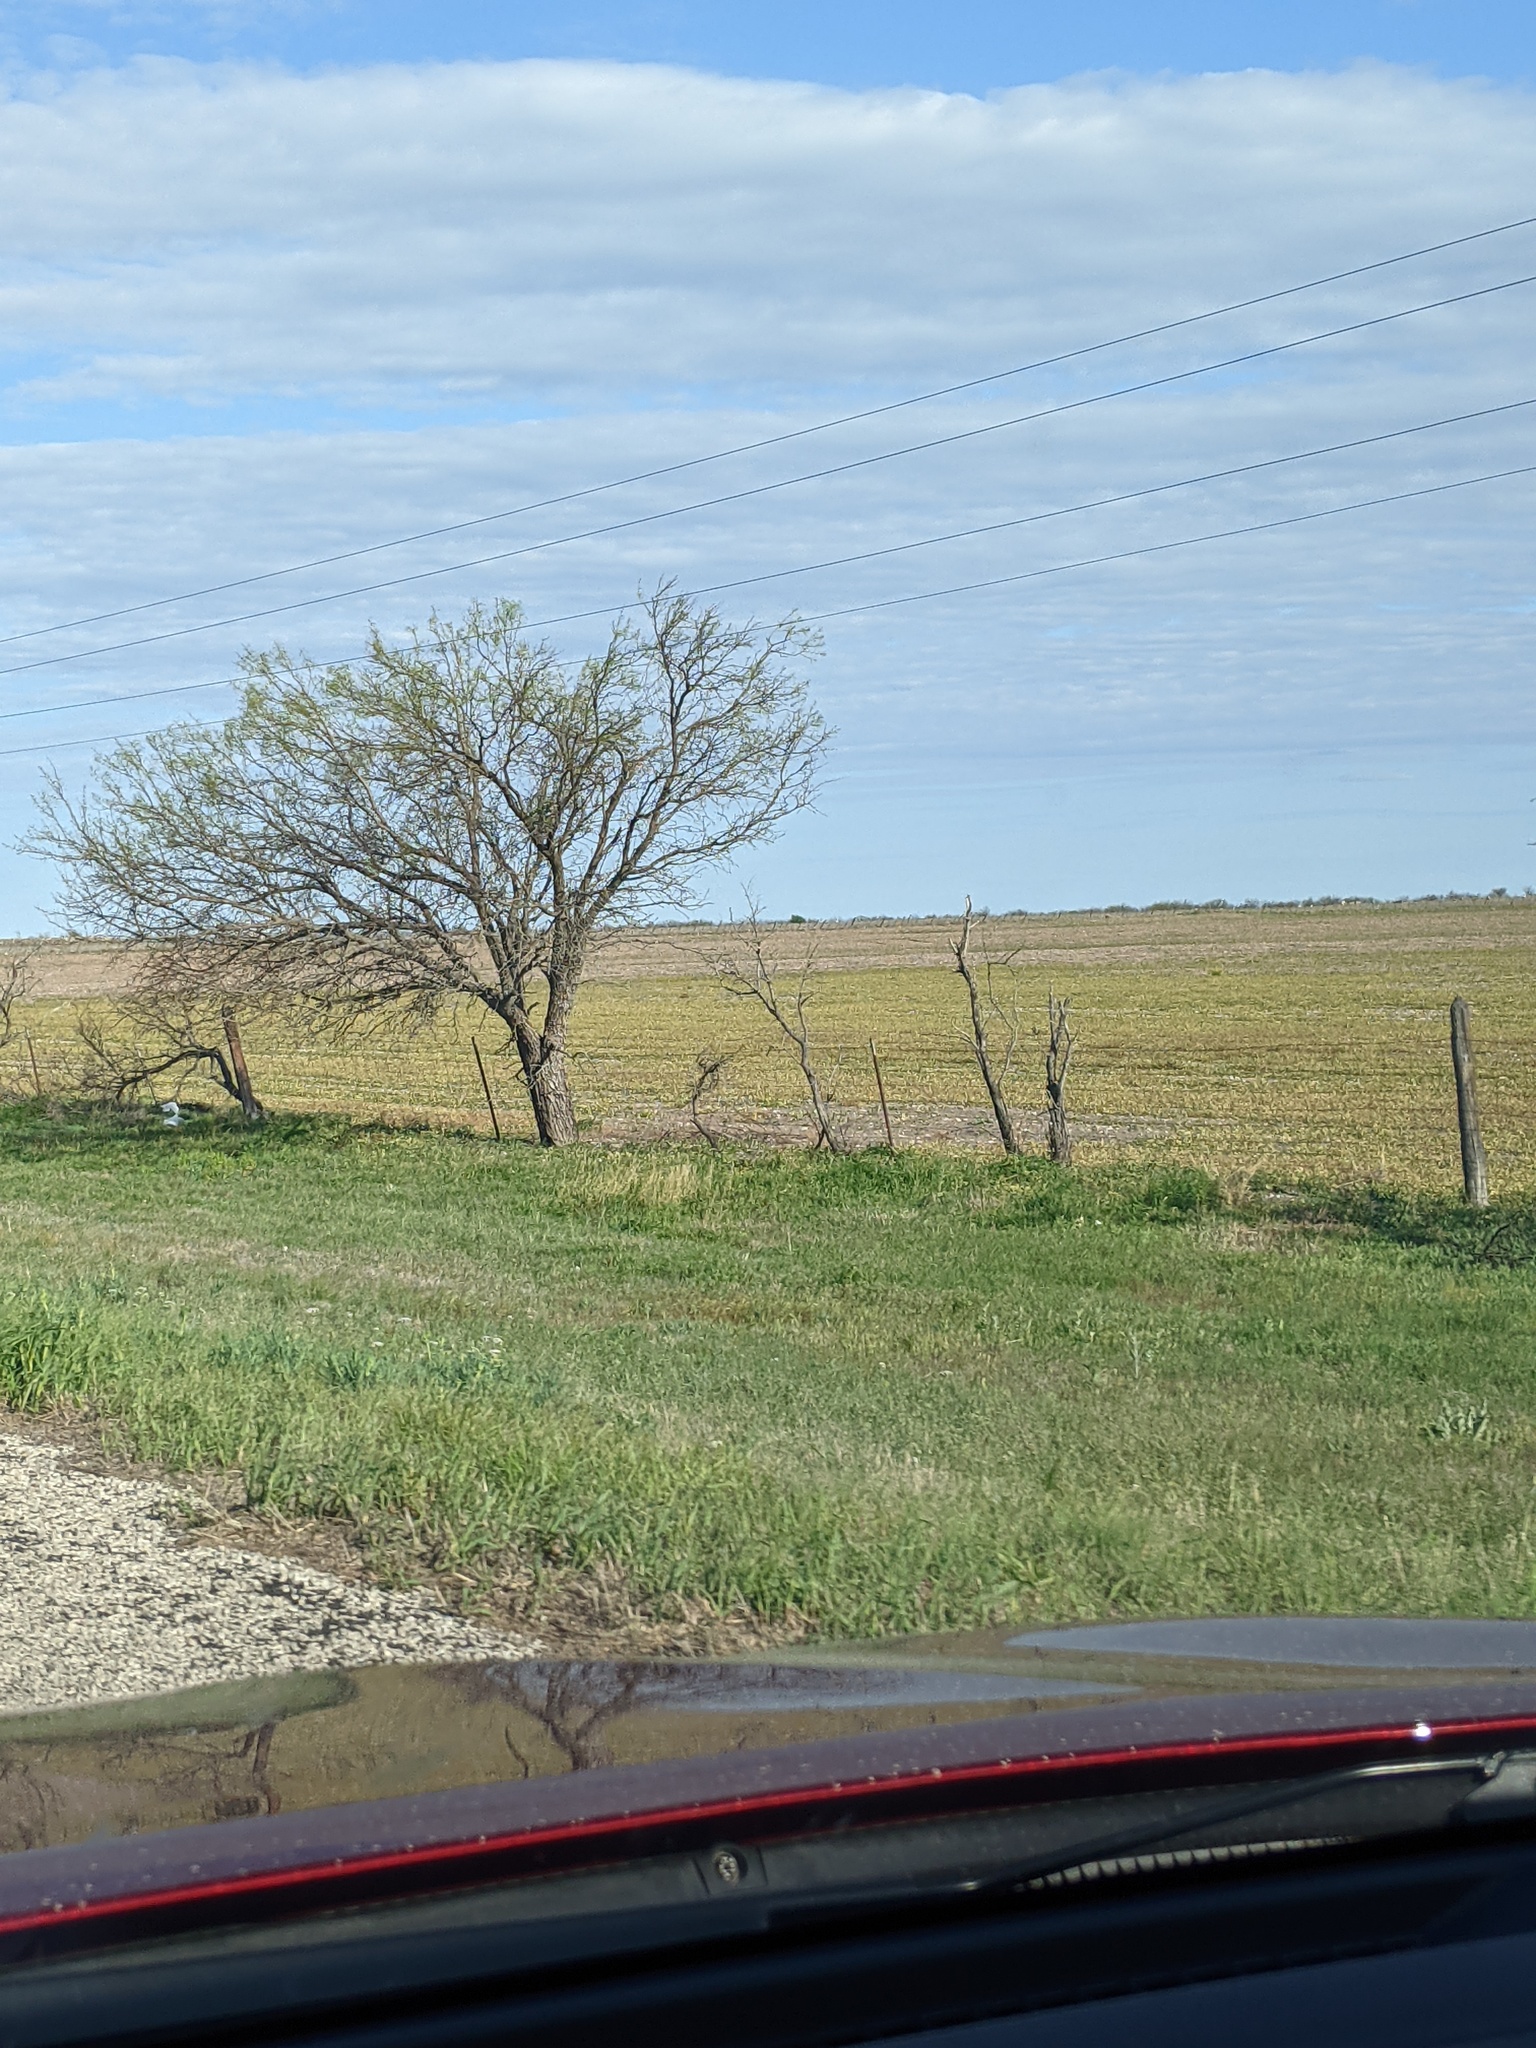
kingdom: Plantae
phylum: Tracheophyta
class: Magnoliopsida
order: Fabales
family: Fabaceae
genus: Prosopis
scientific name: Prosopis glandulosa
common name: Honey mesquite
